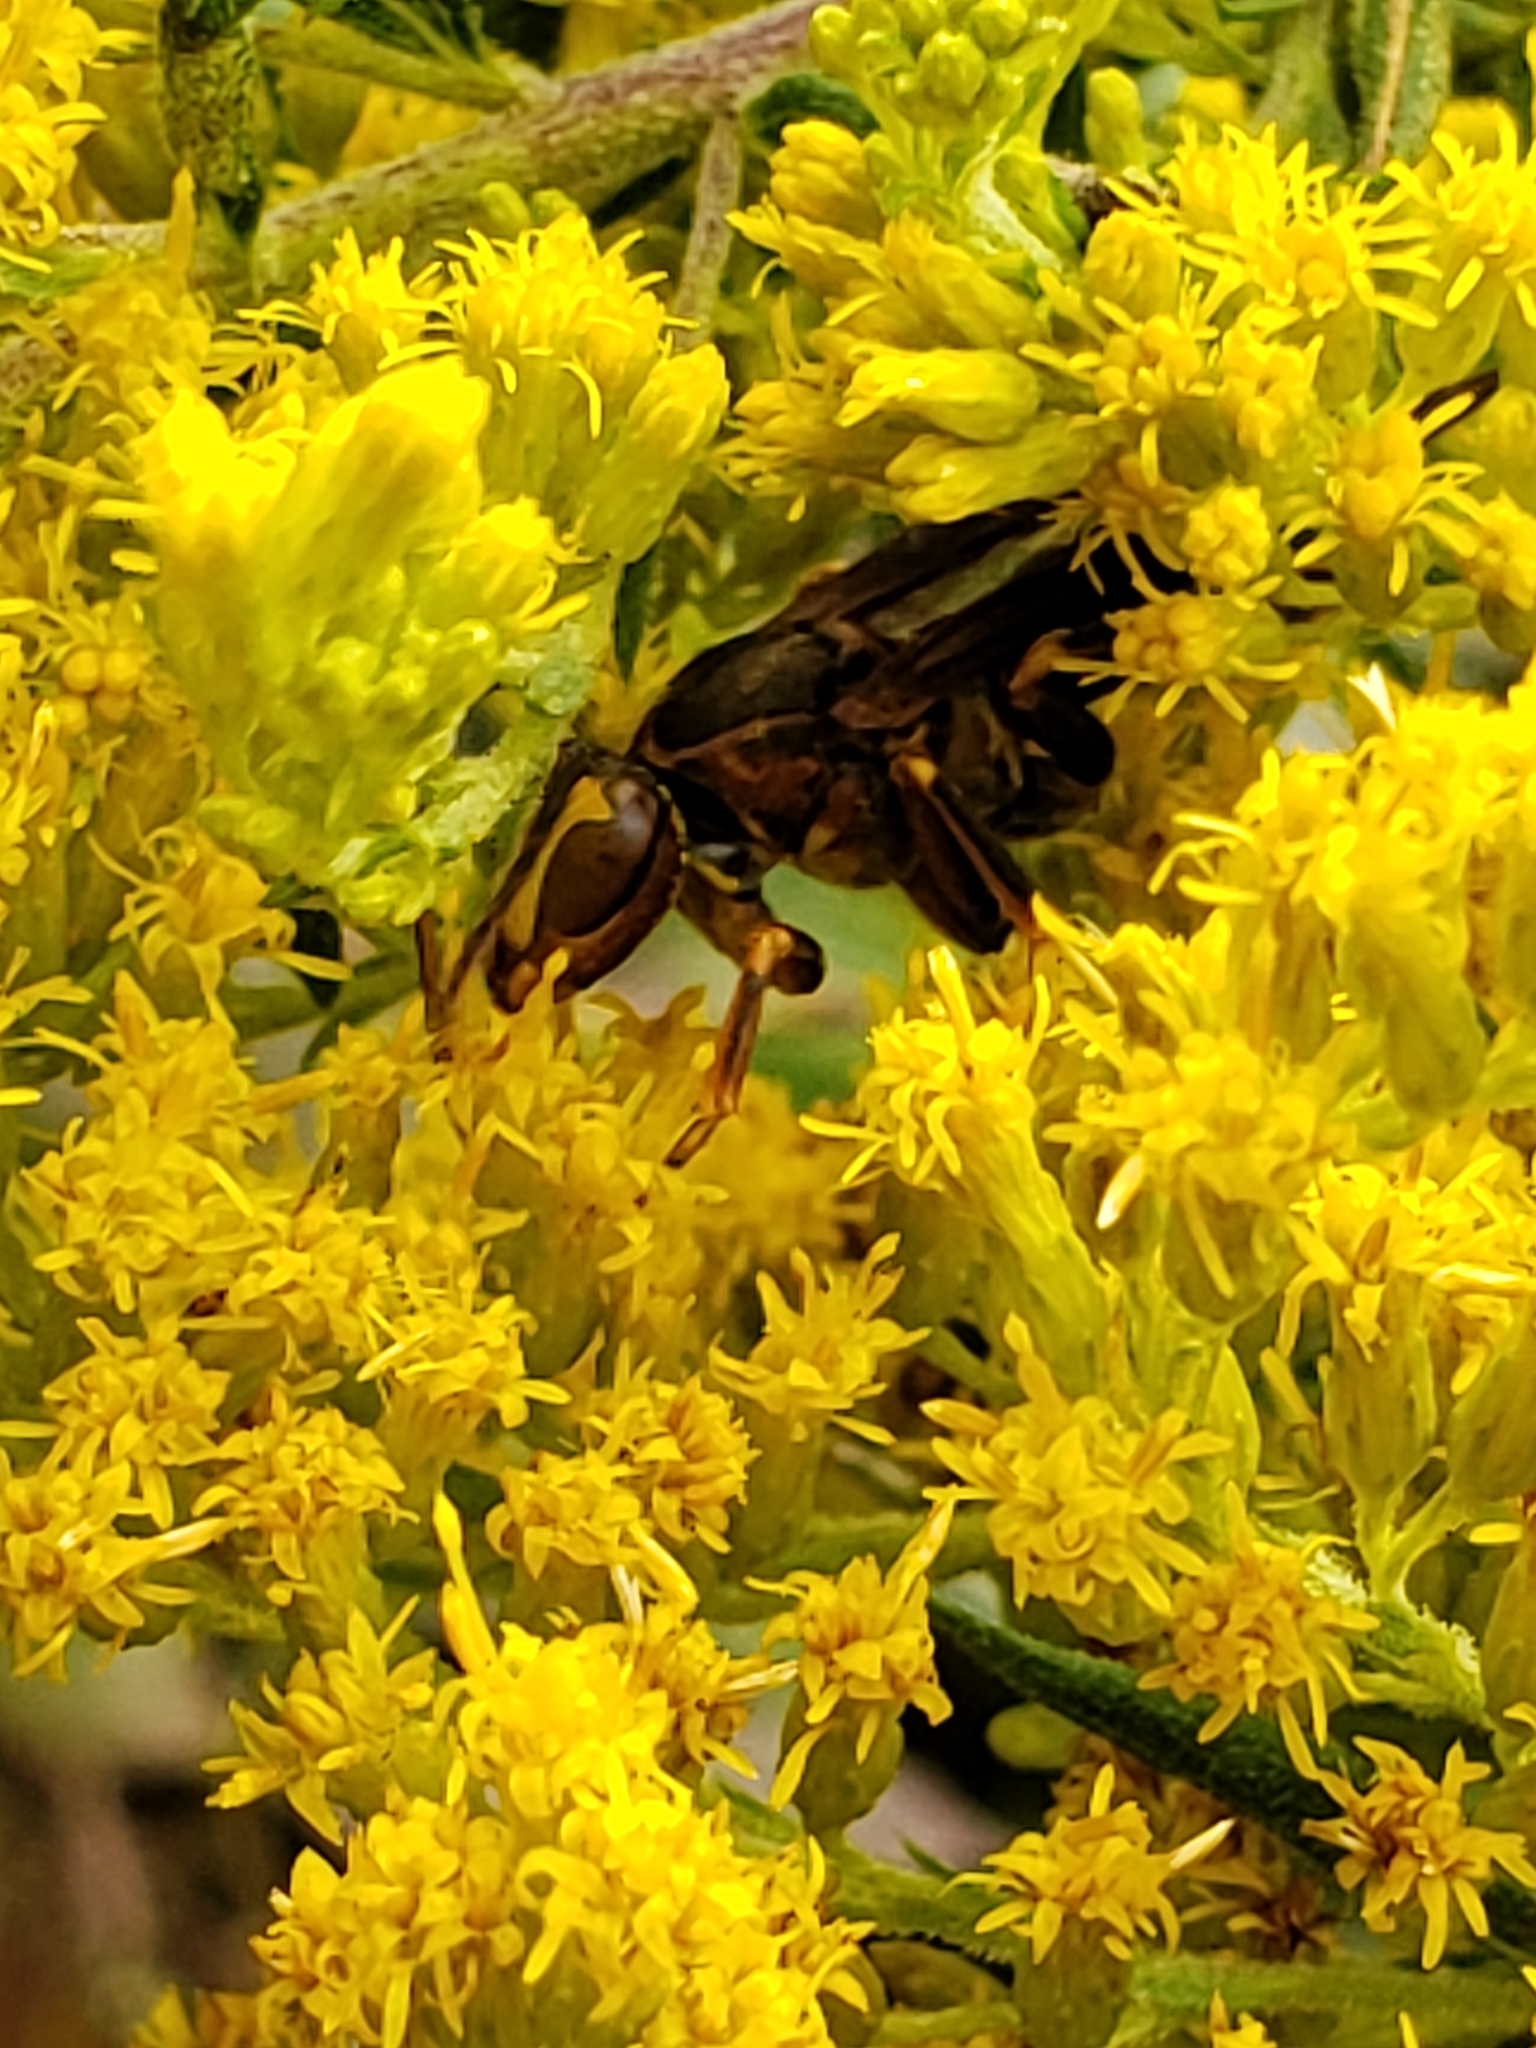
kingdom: Animalia
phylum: Arthropoda
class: Insecta
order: Hymenoptera
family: Eumenidae
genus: Polistes
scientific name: Polistes metricus
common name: Metric paper wasp
